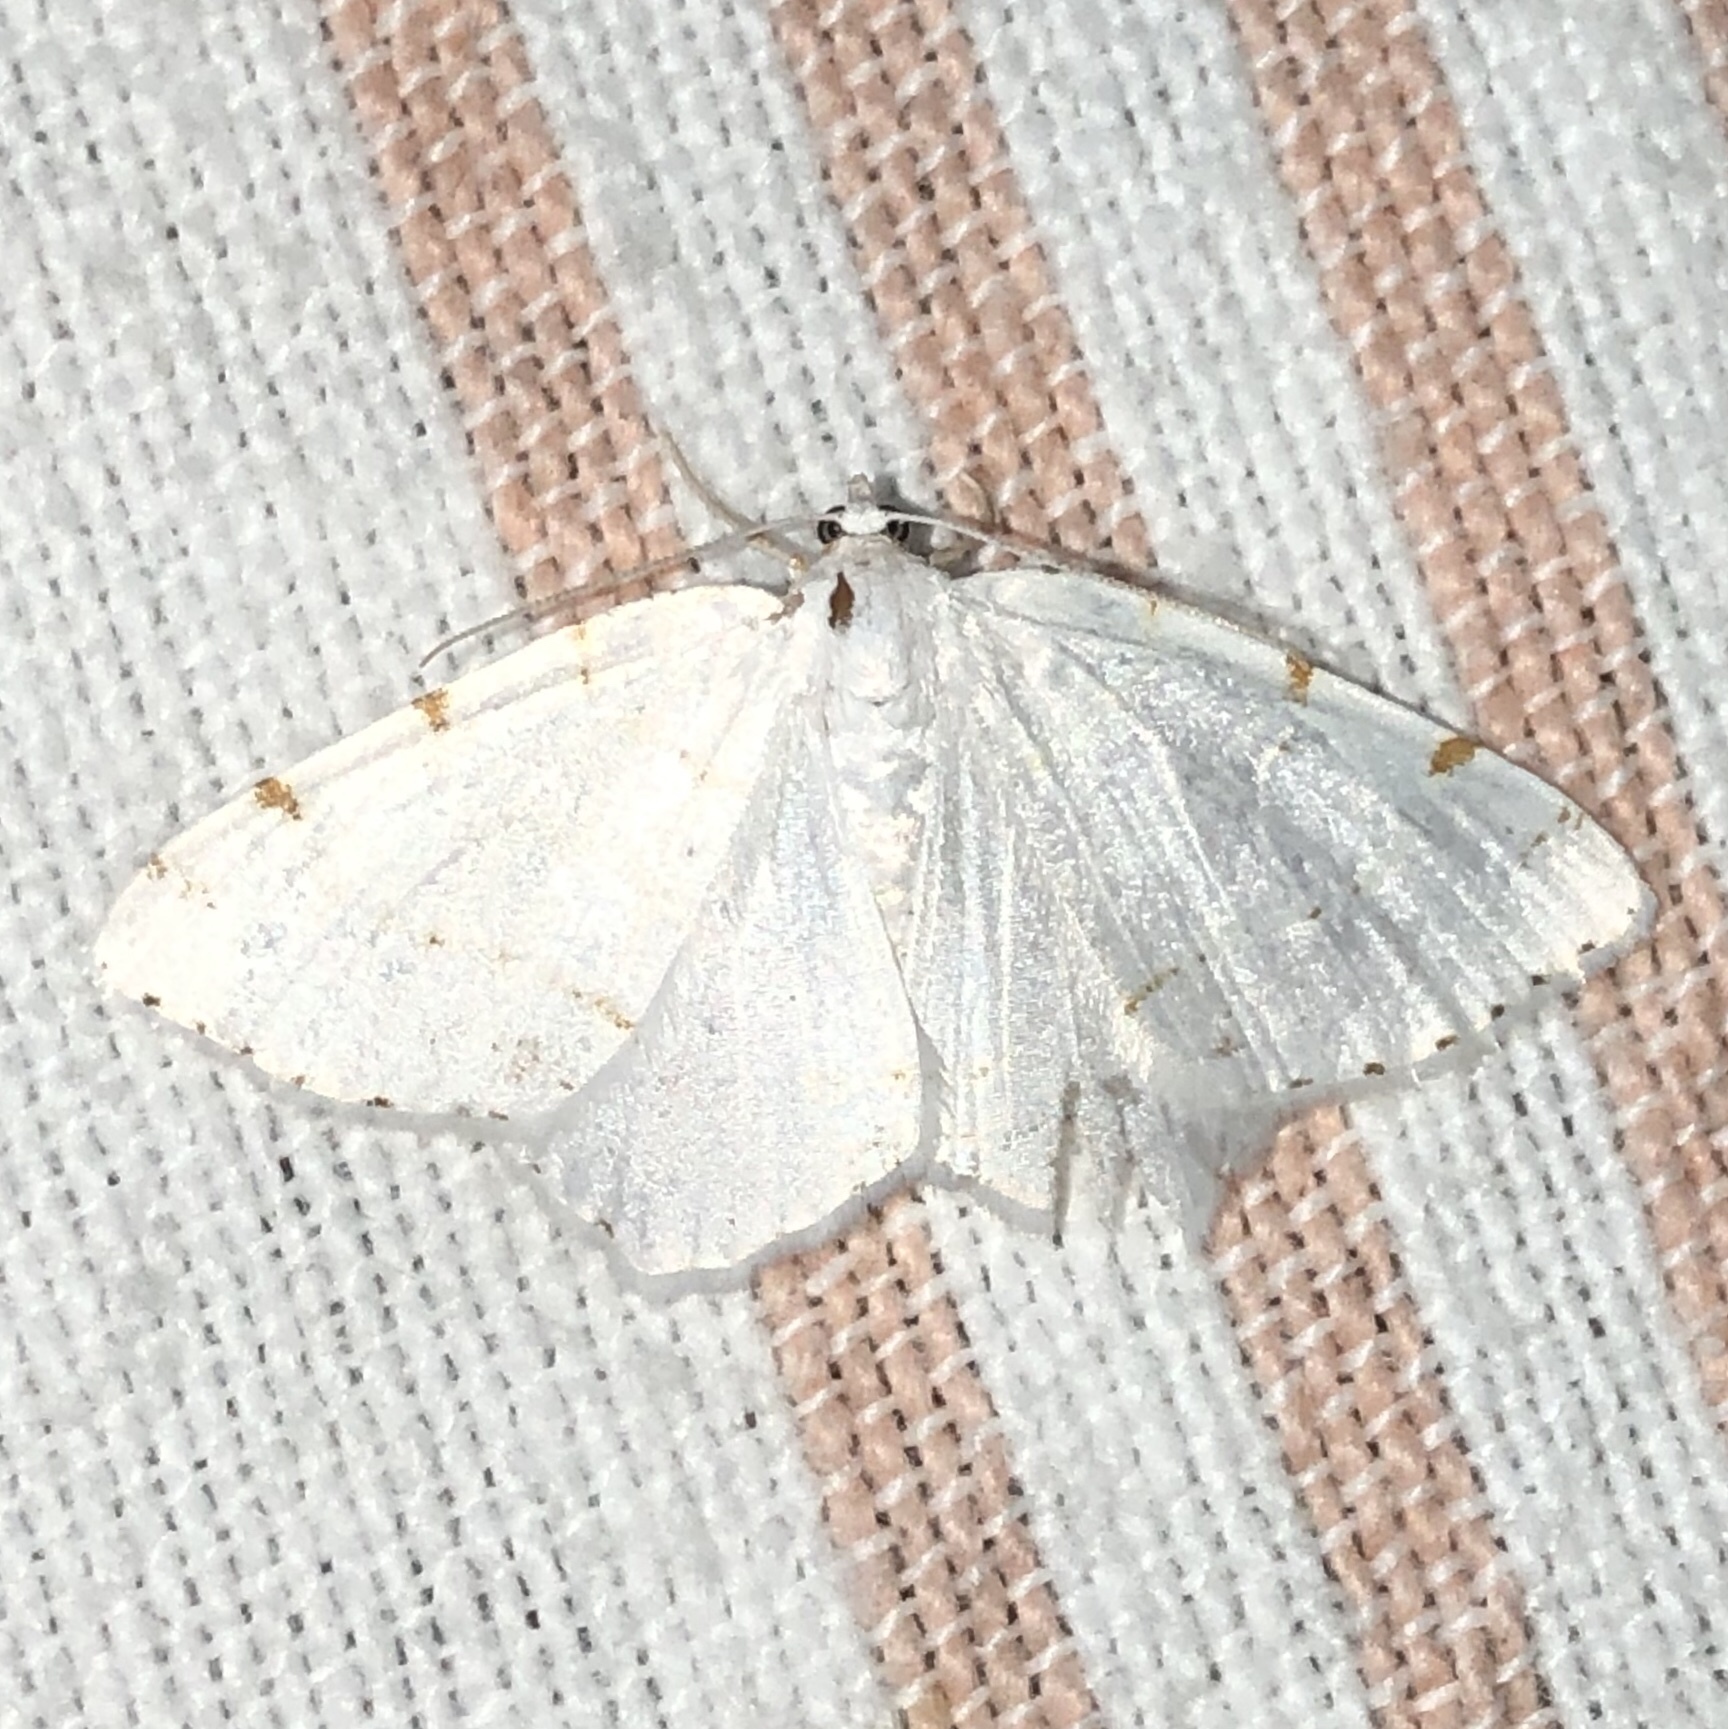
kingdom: Animalia
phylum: Arthropoda
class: Insecta
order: Lepidoptera
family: Geometridae
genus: Macaria
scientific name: Macaria pustularia
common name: Lesser maple spanworm moth
